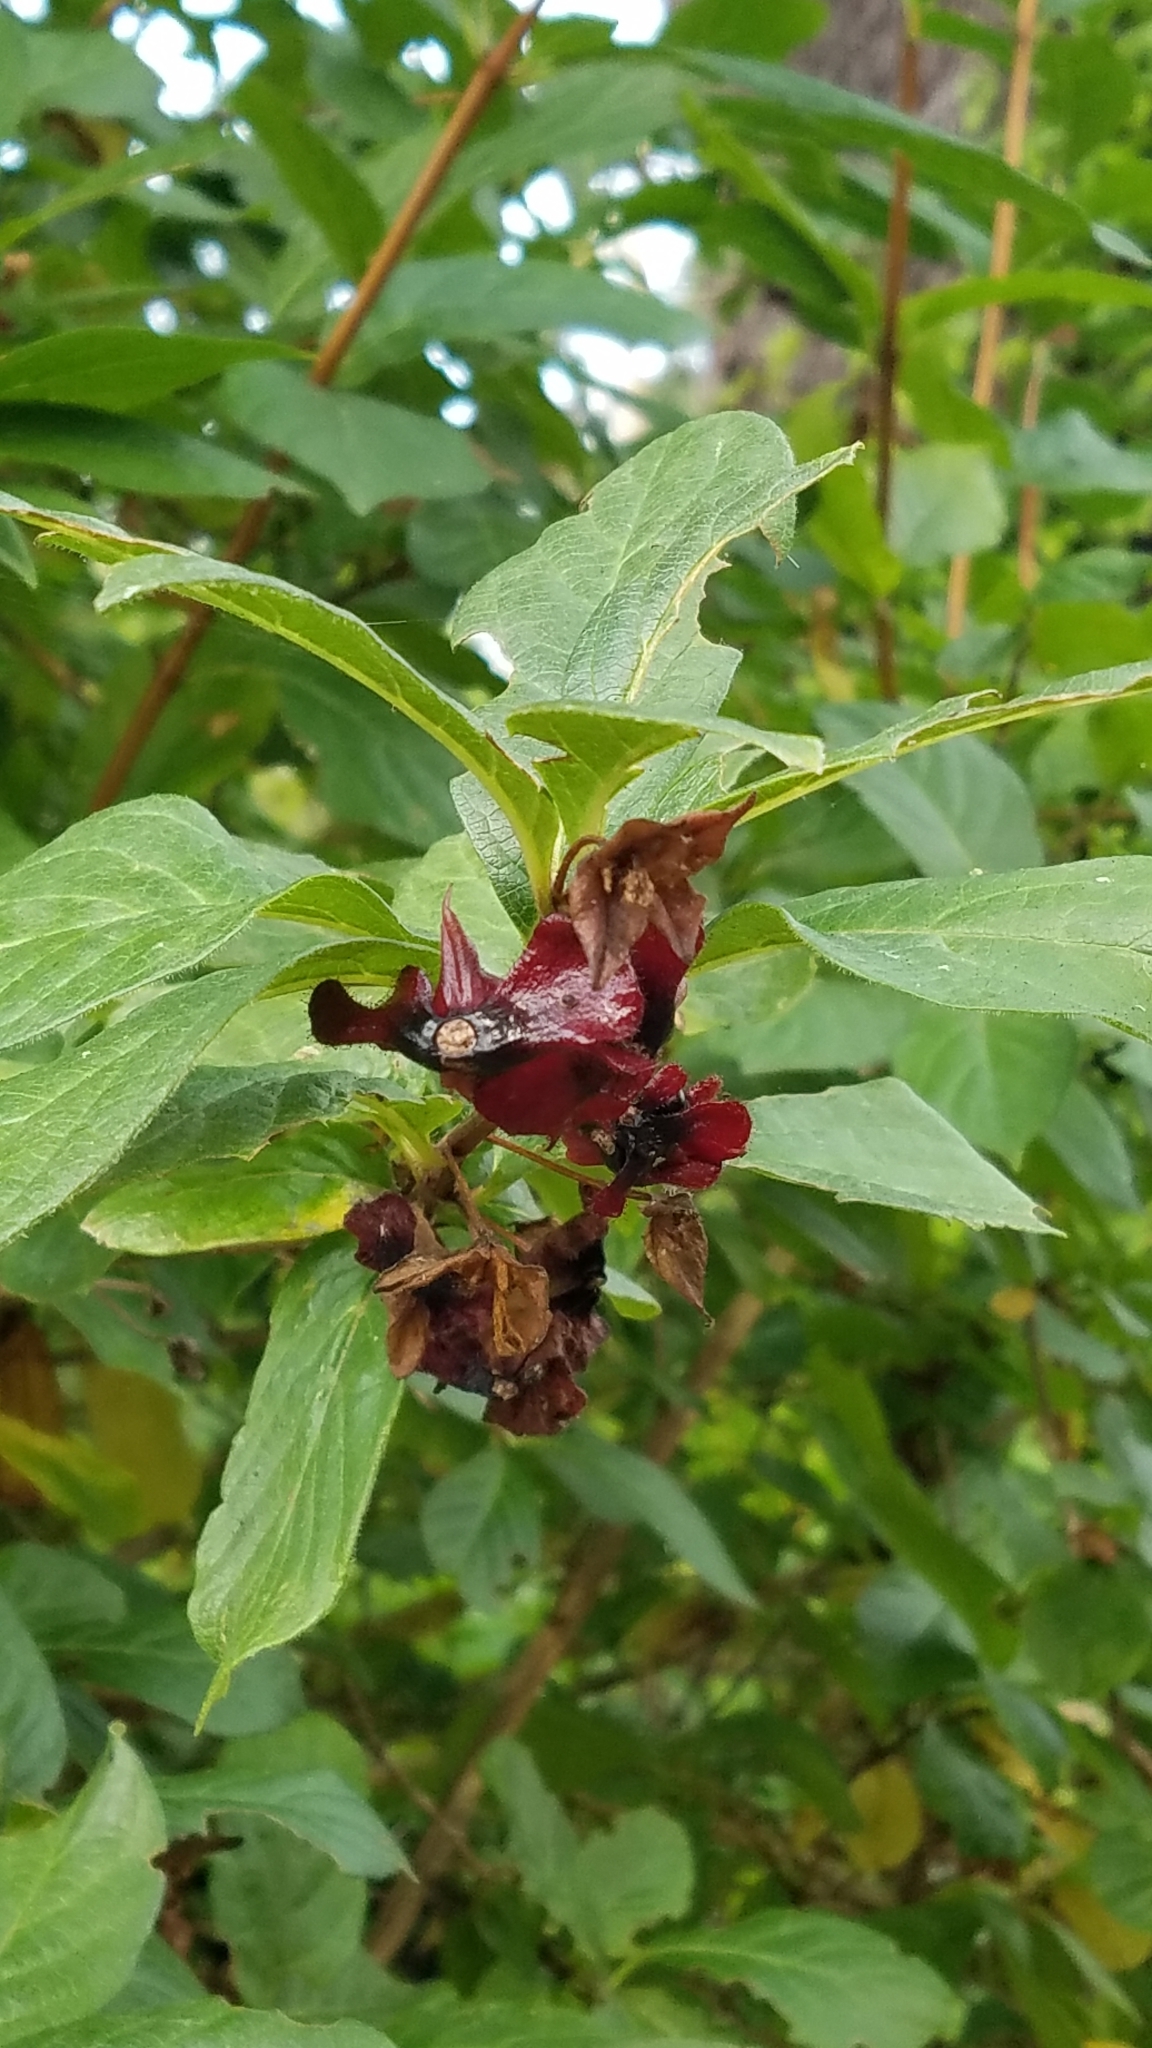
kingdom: Plantae
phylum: Tracheophyta
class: Magnoliopsida
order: Dipsacales
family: Caprifoliaceae
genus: Lonicera
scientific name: Lonicera involucrata
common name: Californian honeysuckle
